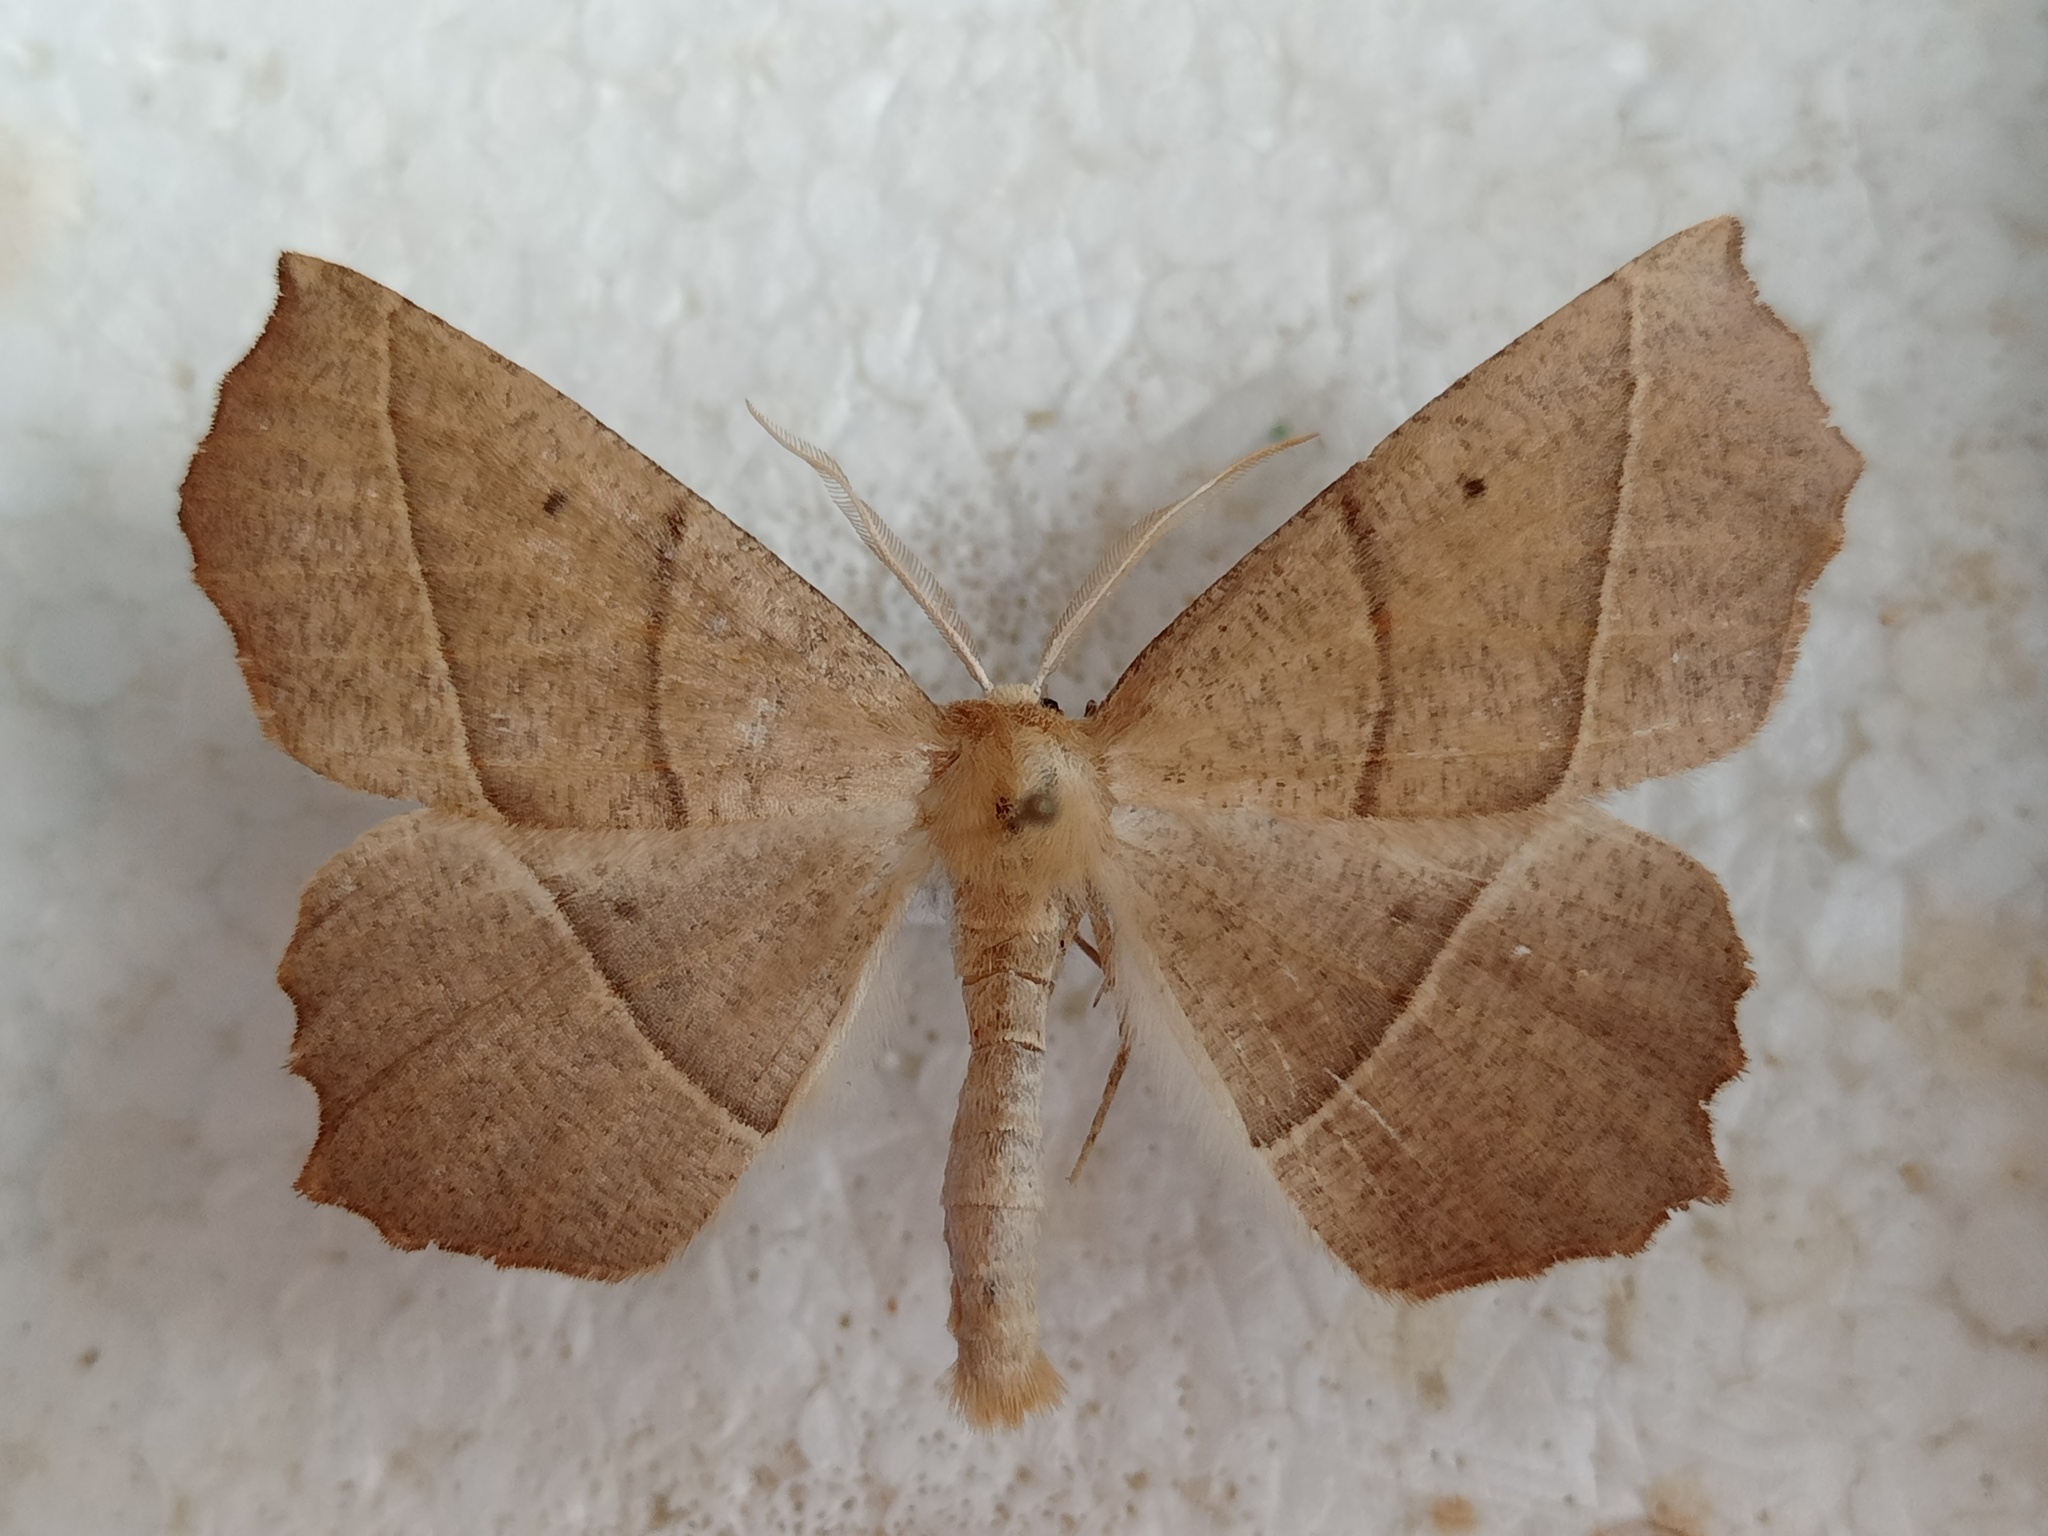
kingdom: Animalia
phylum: Arthropoda
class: Insecta
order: Lepidoptera
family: Geometridae
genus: Gerinia
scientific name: Gerinia honoraria
